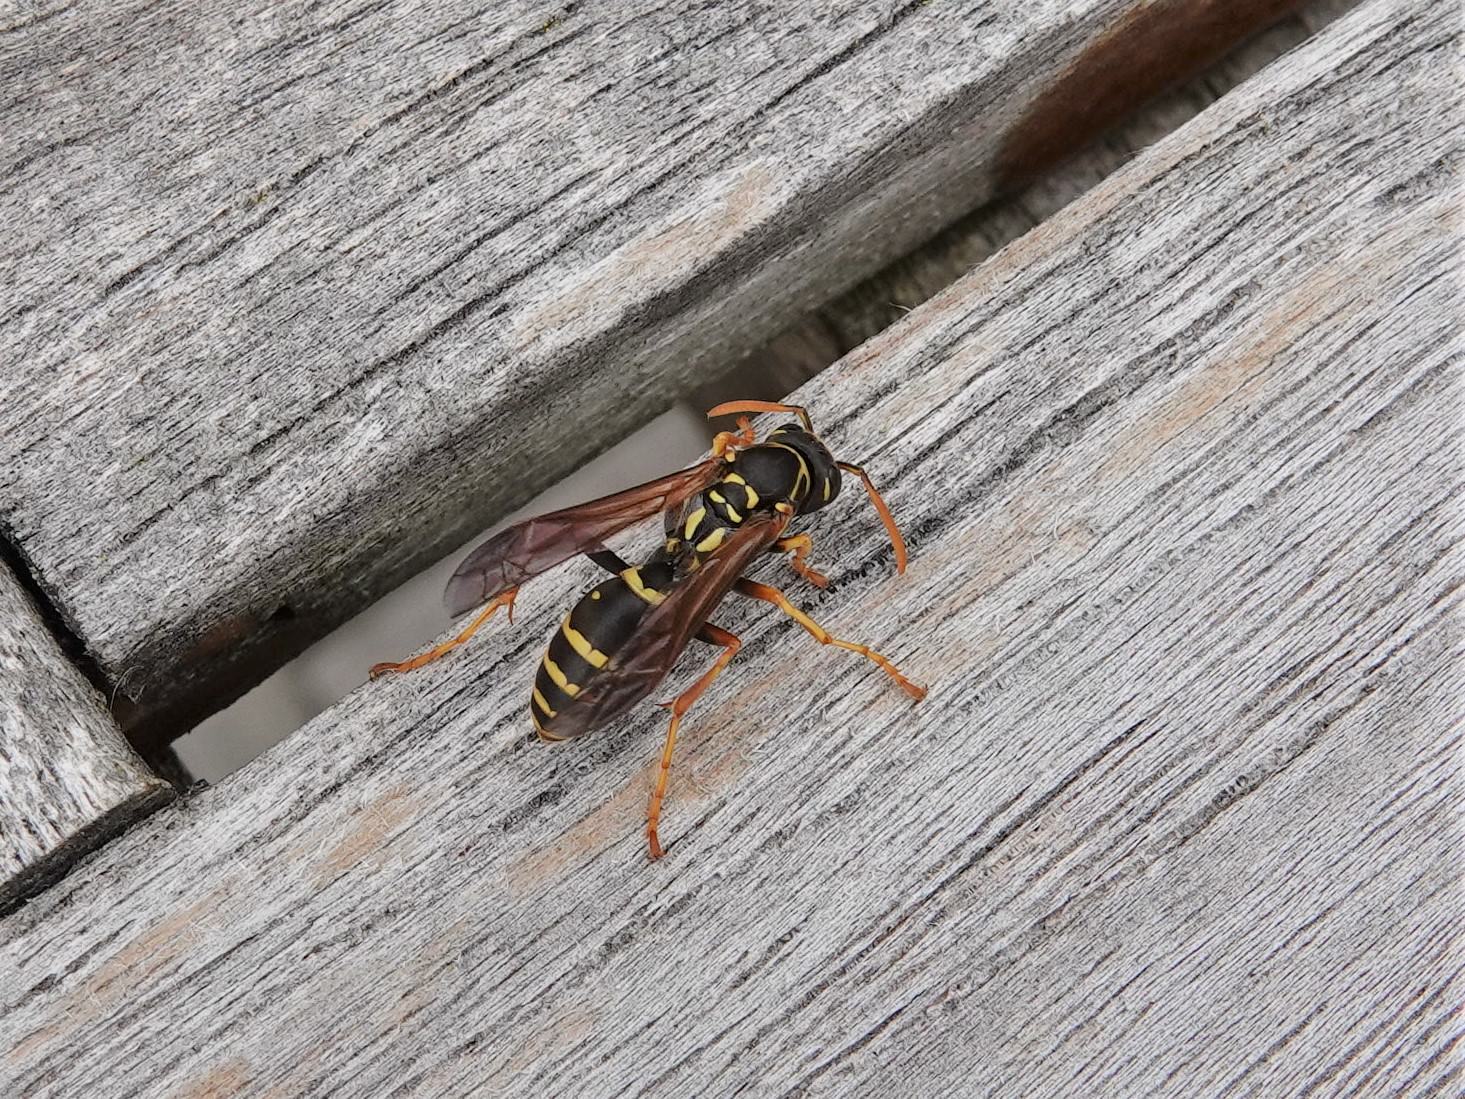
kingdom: Animalia
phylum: Arthropoda
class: Insecta
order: Hymenoptera
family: Eumenidae
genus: Polistes
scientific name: Polistes chinensis
